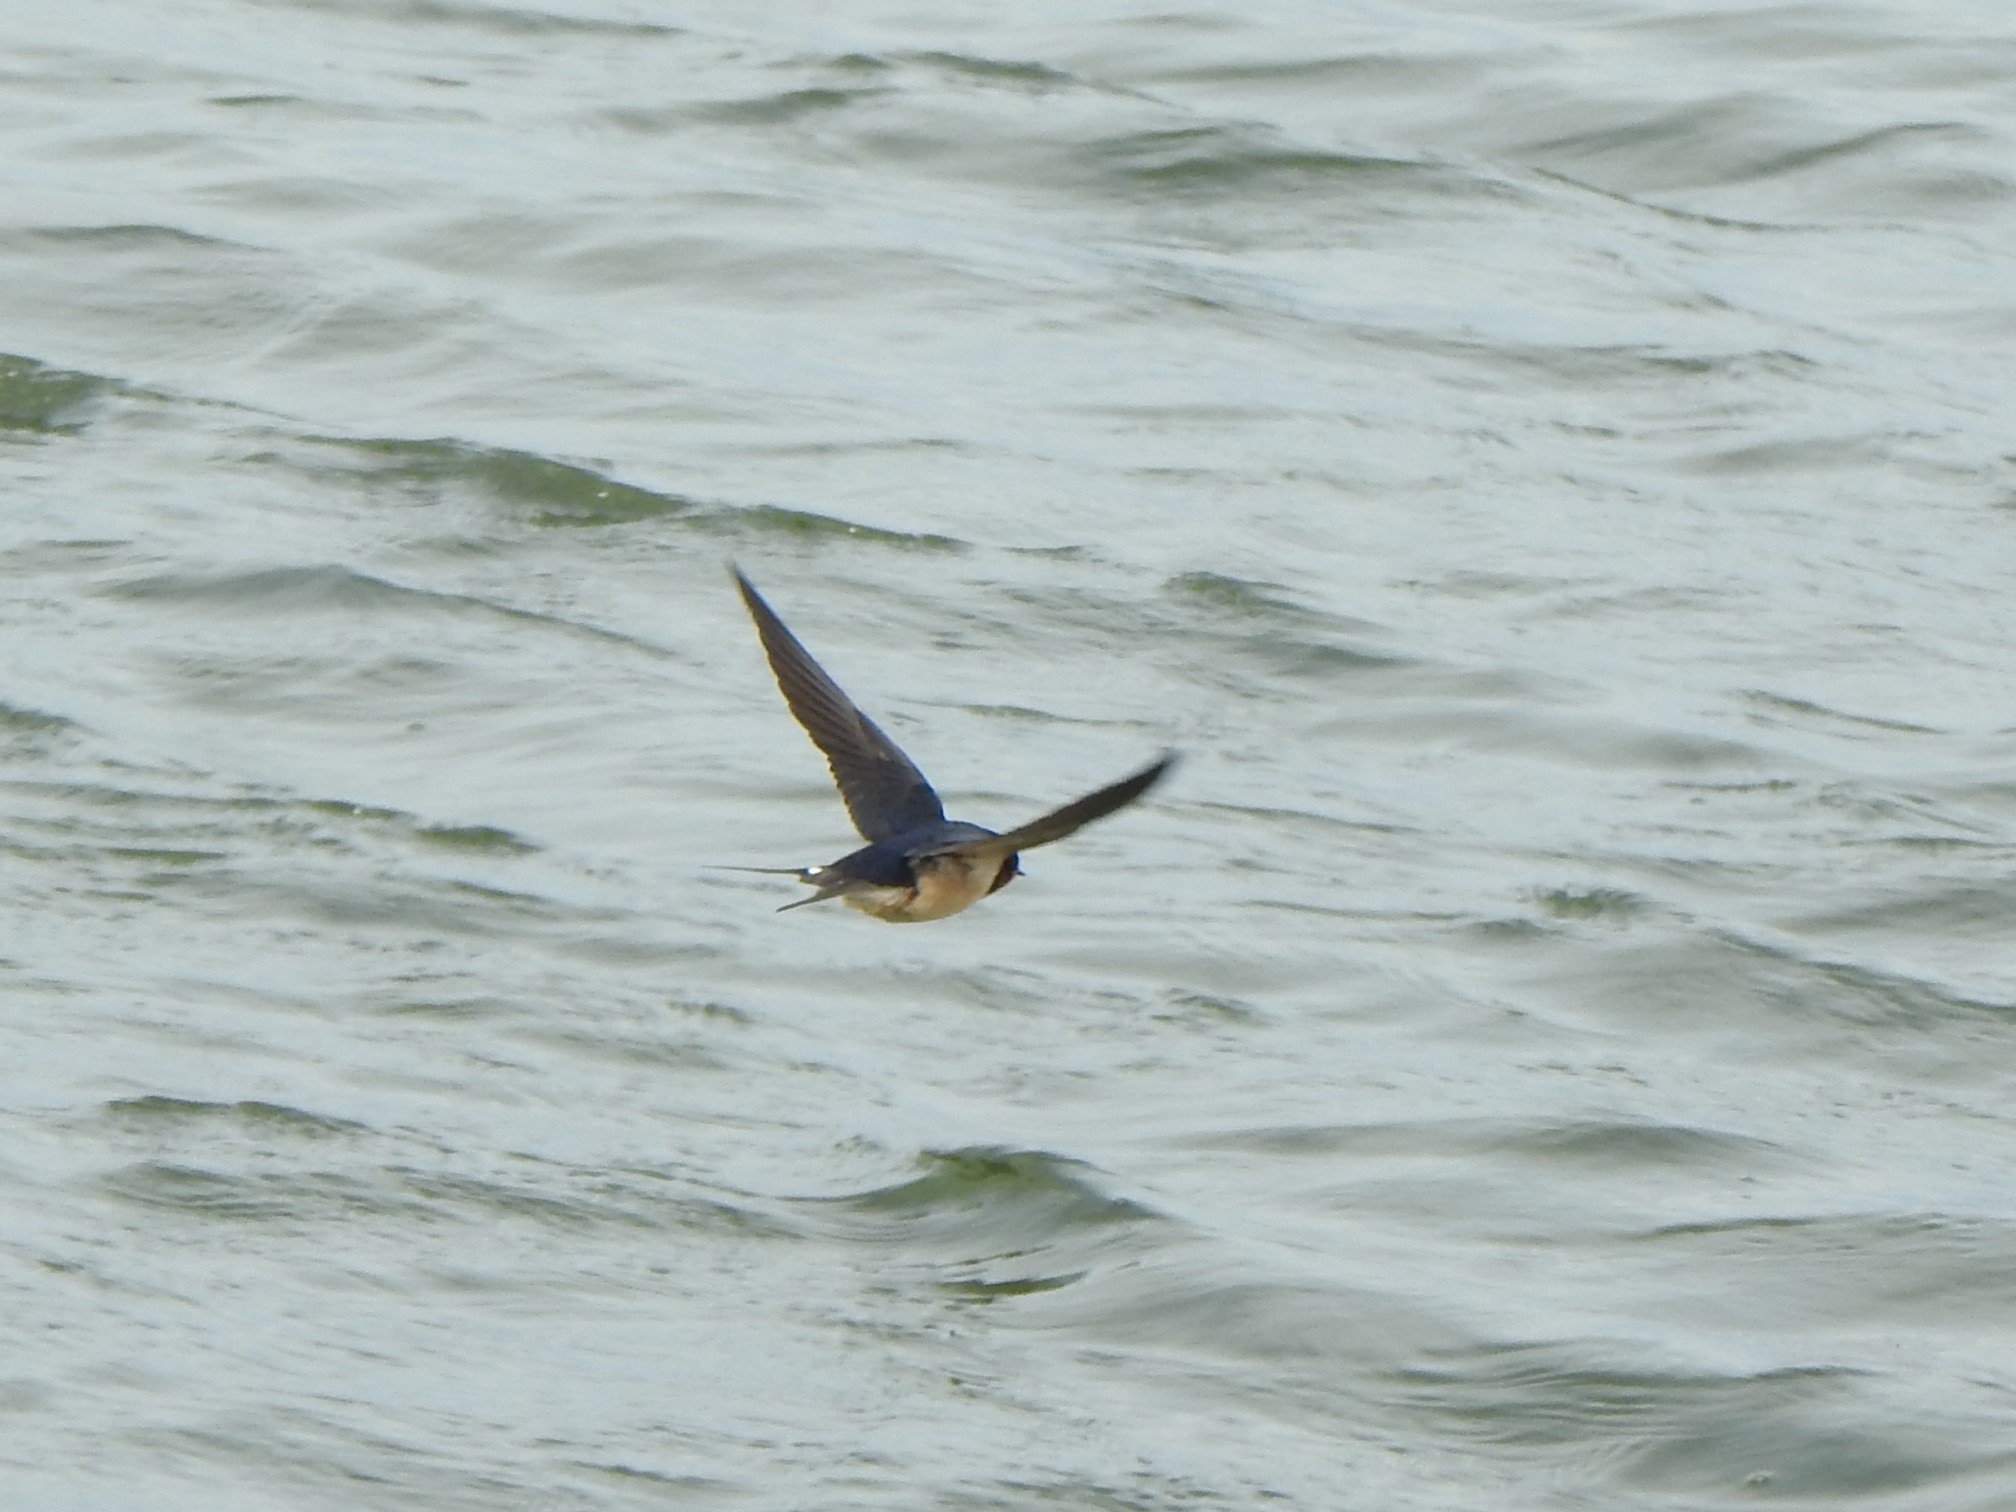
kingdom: Animalia
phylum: Chordata
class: Aves
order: Passeriformes
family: Hirundinidae
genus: Hirundo
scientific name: Hirundo rustica
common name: Barn swallow
